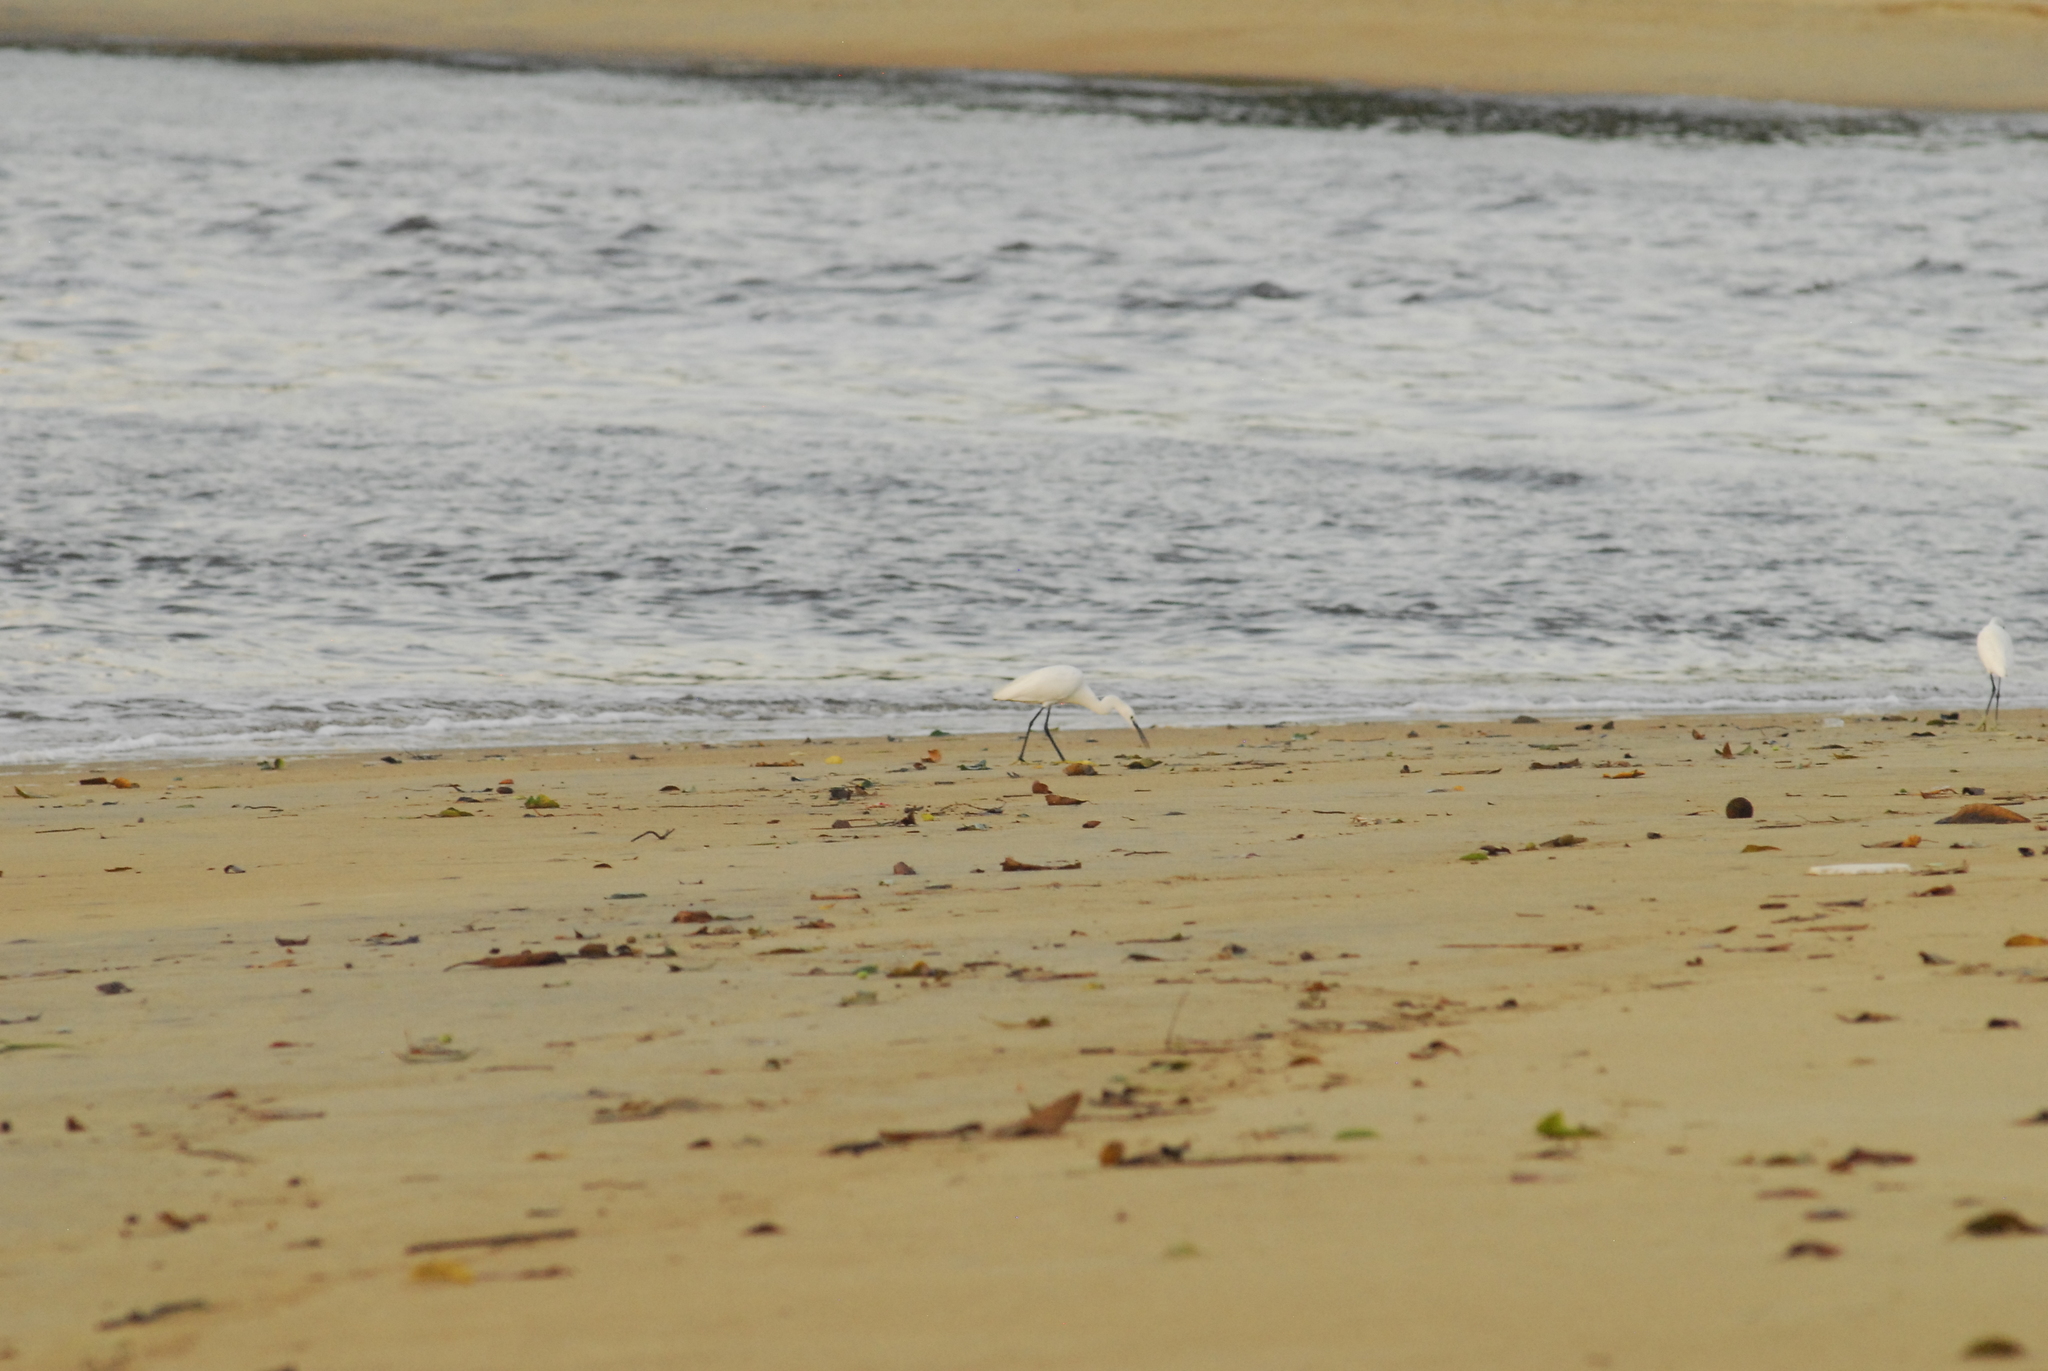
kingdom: Animalia
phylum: Chordata
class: Aves
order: Pelecaniformes
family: Ardeidae
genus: Egretta
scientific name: Egretta garzetta
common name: Little egret
